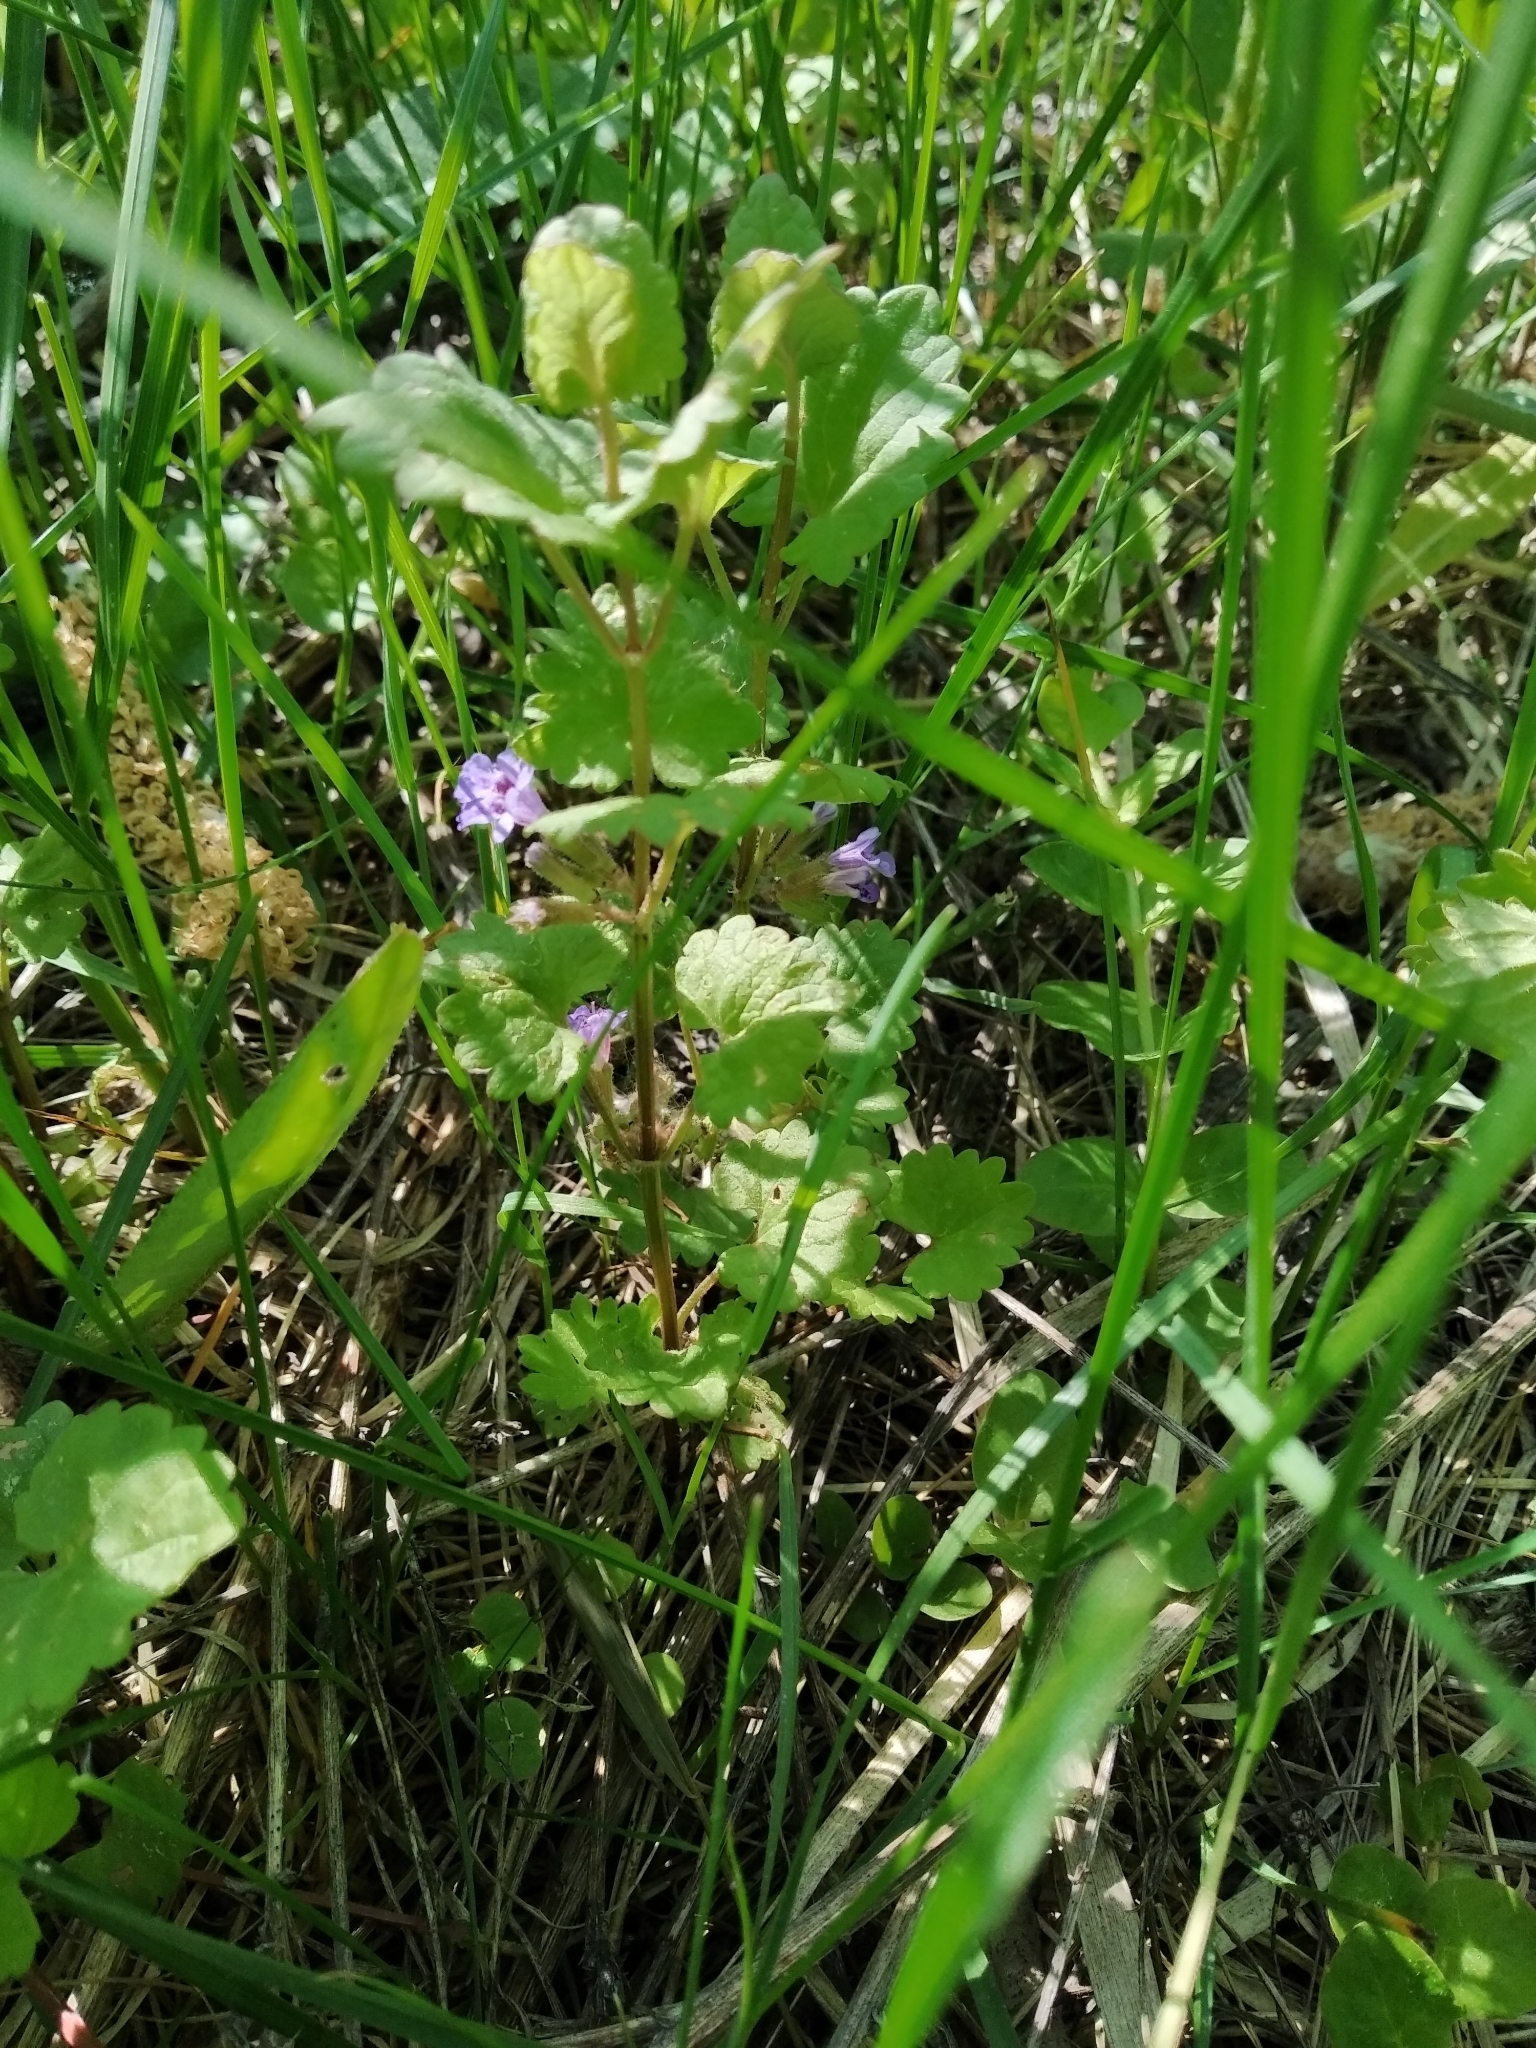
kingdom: Plantae
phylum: Tracheophyta
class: Magnoliopsida
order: Lamiales
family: Lamiaceae
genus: Glechoma
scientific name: Glechoma hederacea
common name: Ground ivy
